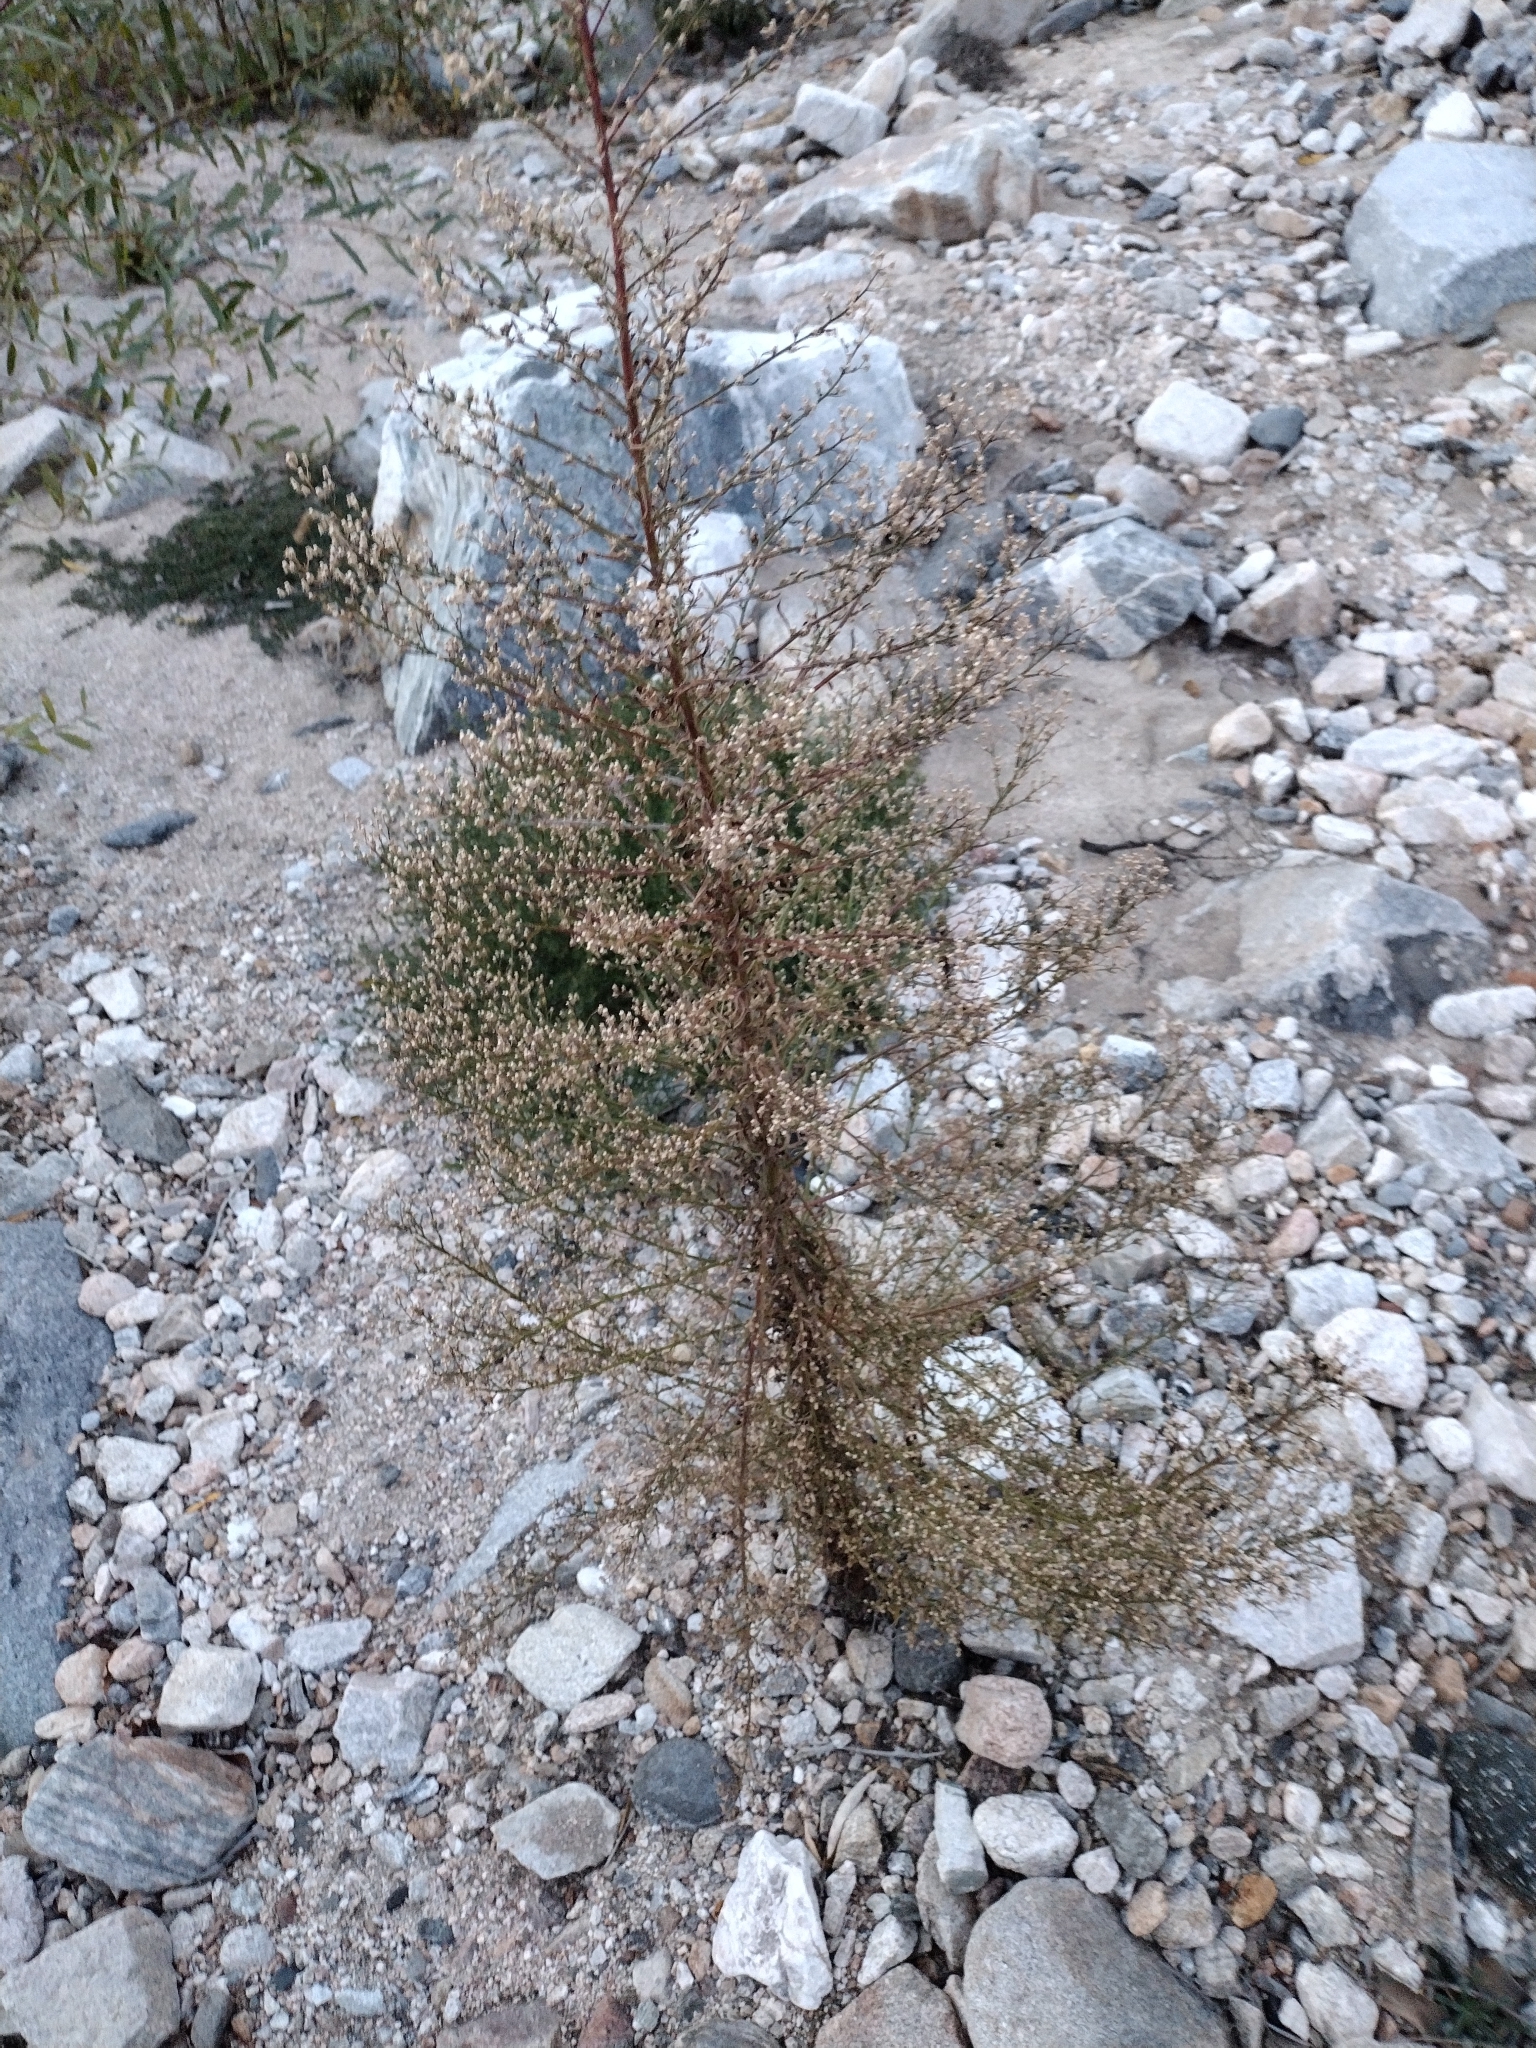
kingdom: Plantae
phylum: Tracheophyta
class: Magnoliopsida
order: Asterales
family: Asteraceae
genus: Erigeron
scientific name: Erigeron canadensis
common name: Canadian fleabane
